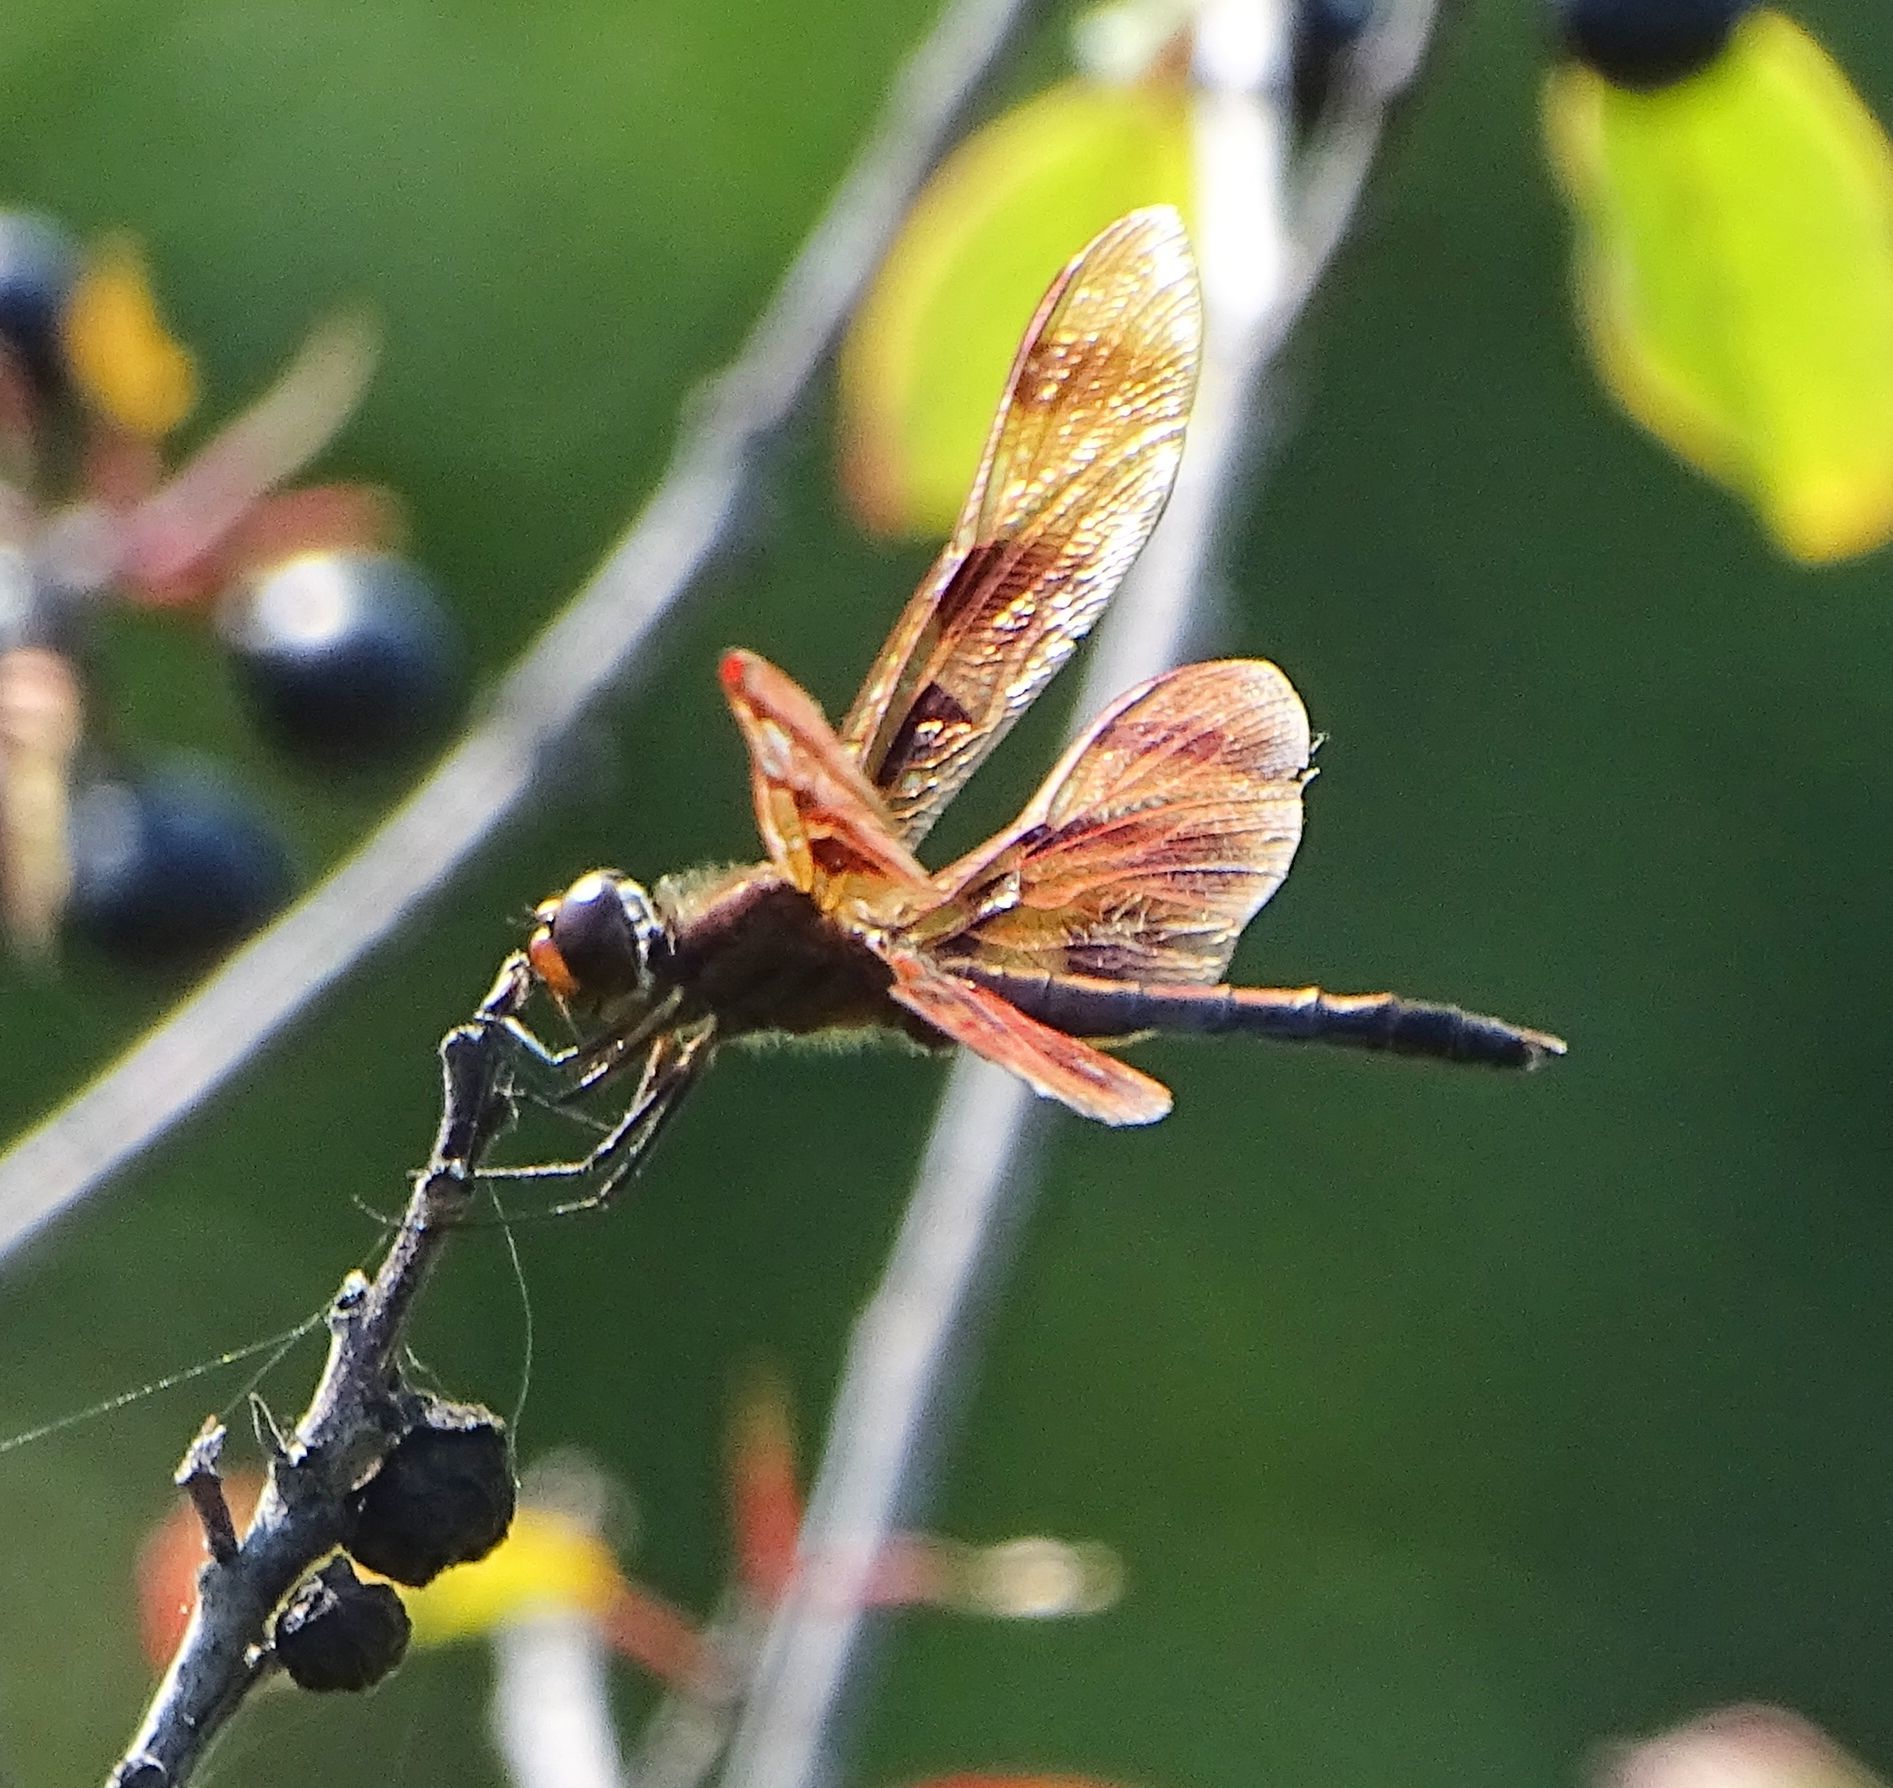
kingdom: Animalia
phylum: Arthropoda
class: Insecta
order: Odonata
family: Libellulidae
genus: Celithemis
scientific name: Celithemis eponina
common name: Halloween pennant
